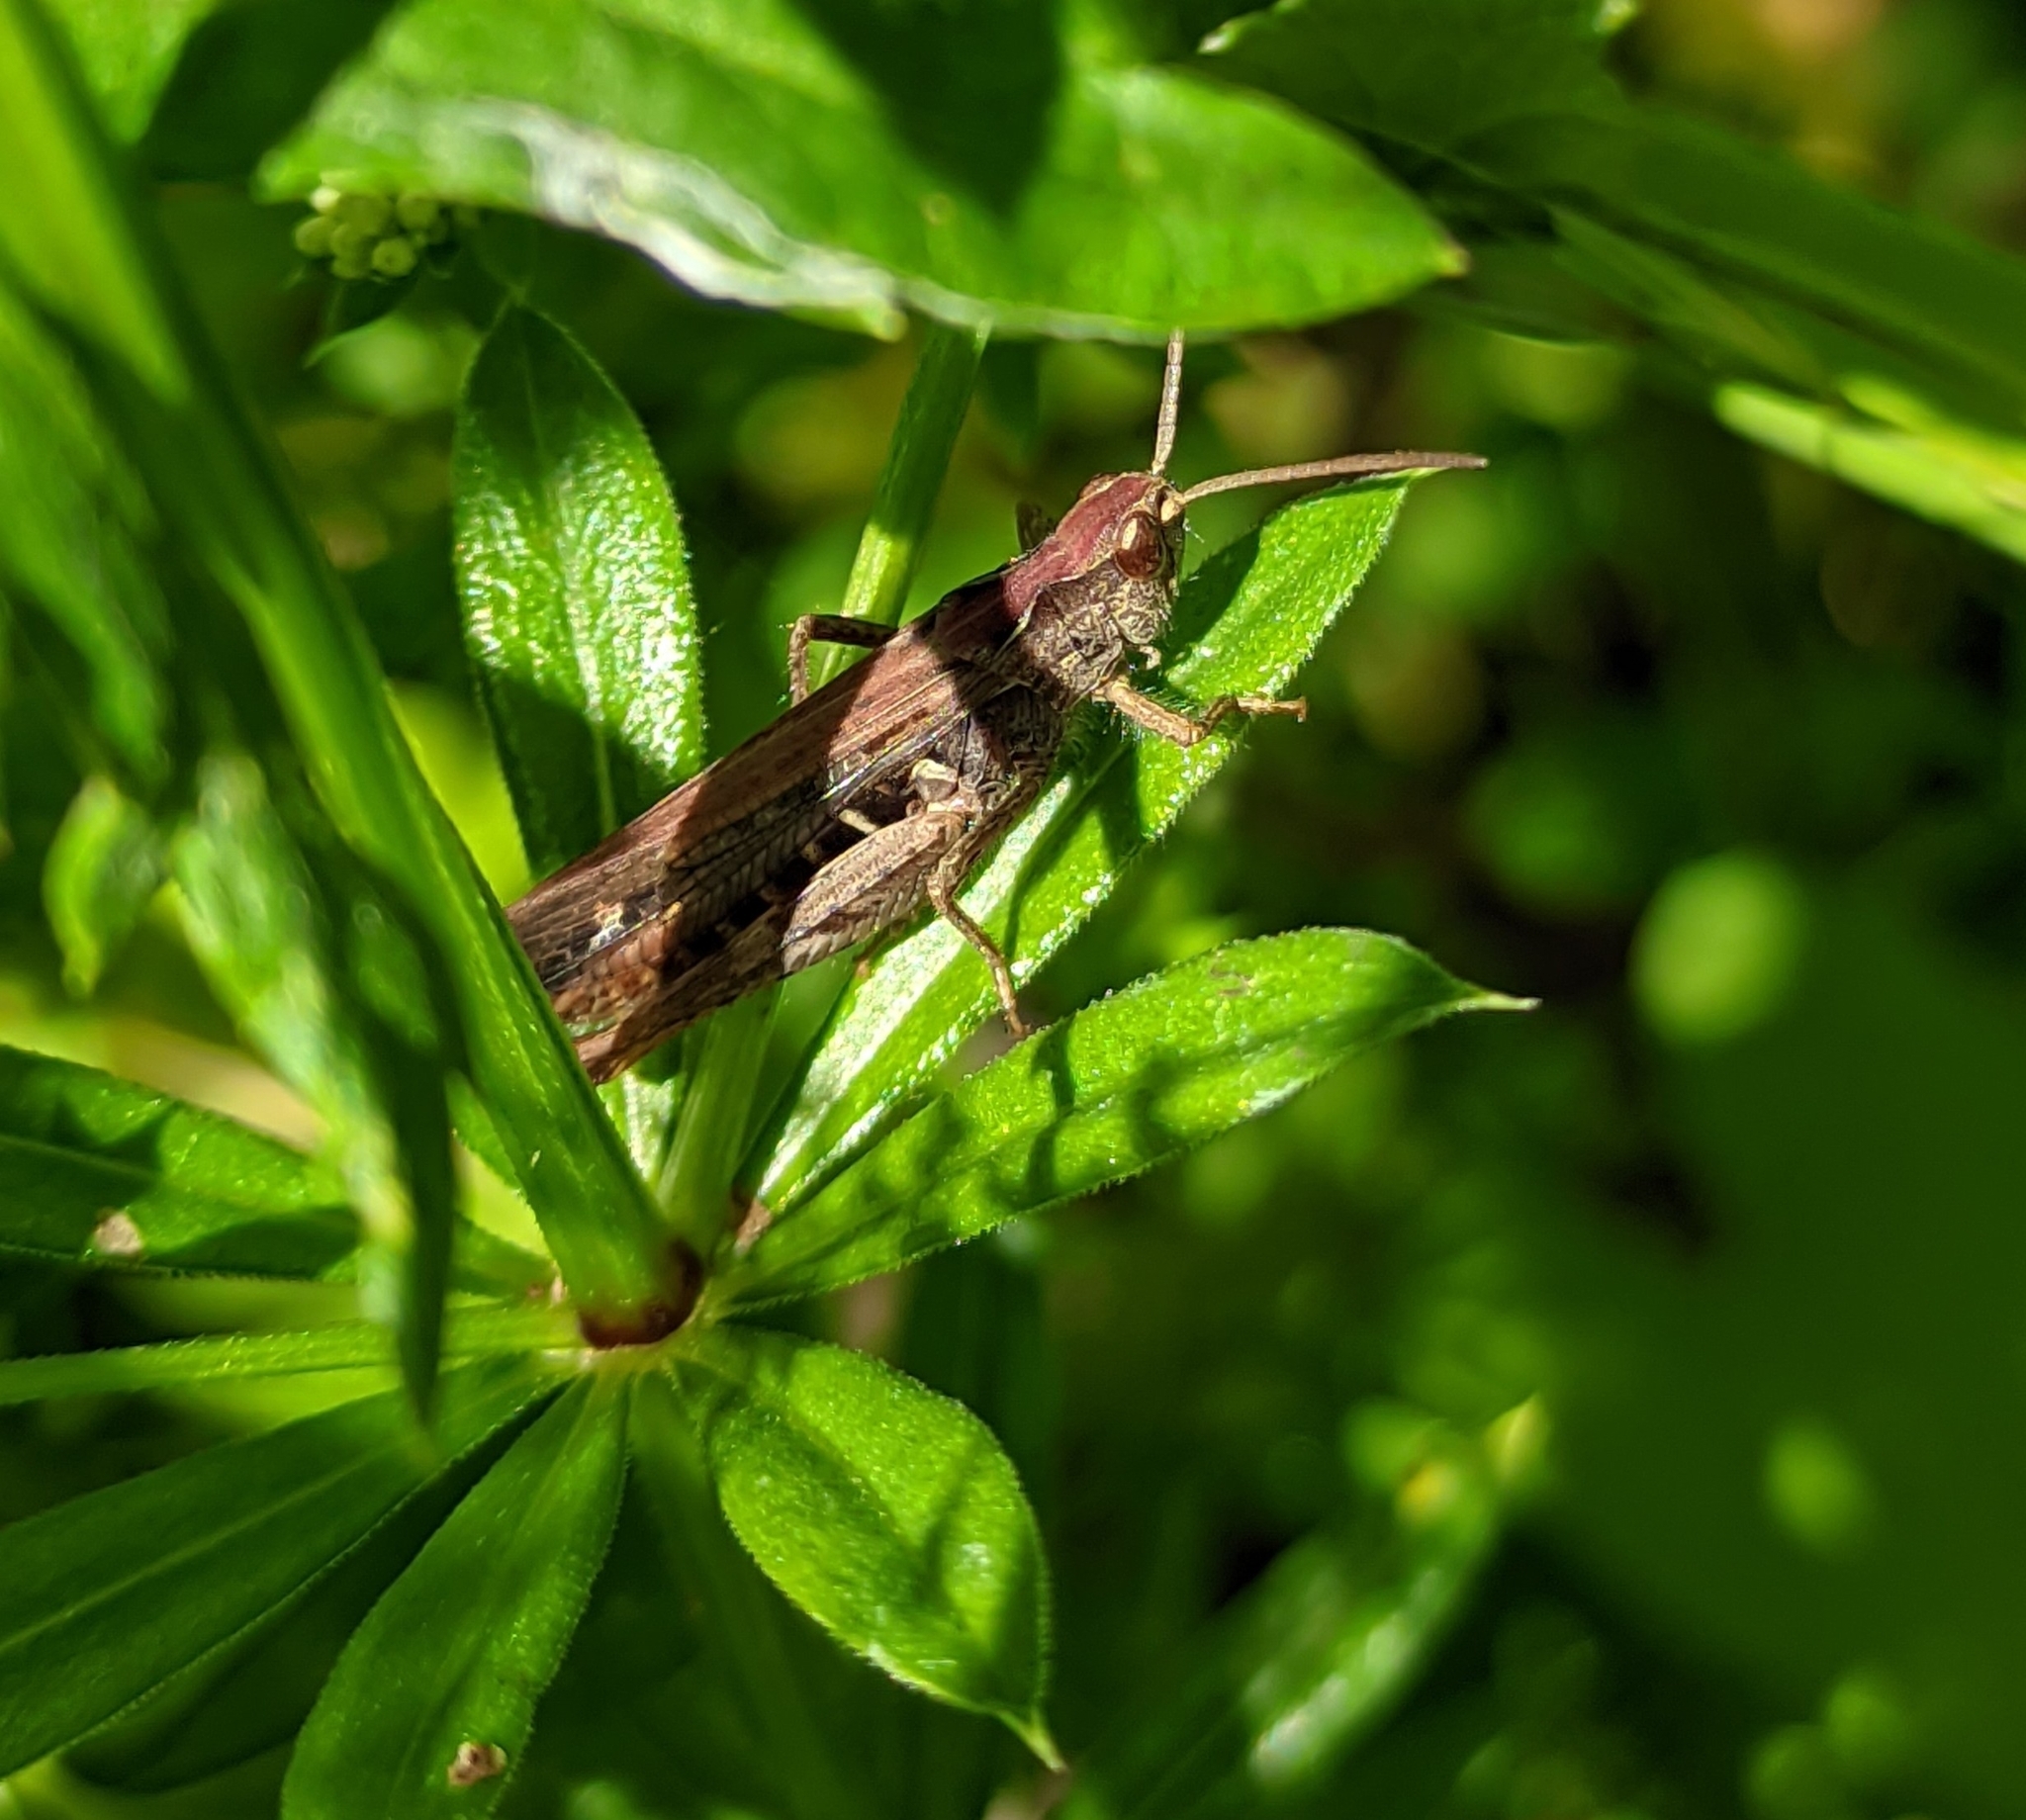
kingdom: Animalia
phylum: Arthropoda
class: Insecta
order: Orthoptera
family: Acrididae
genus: Chorthippus
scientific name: Chorthippus brunneus
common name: Field grasshopper
